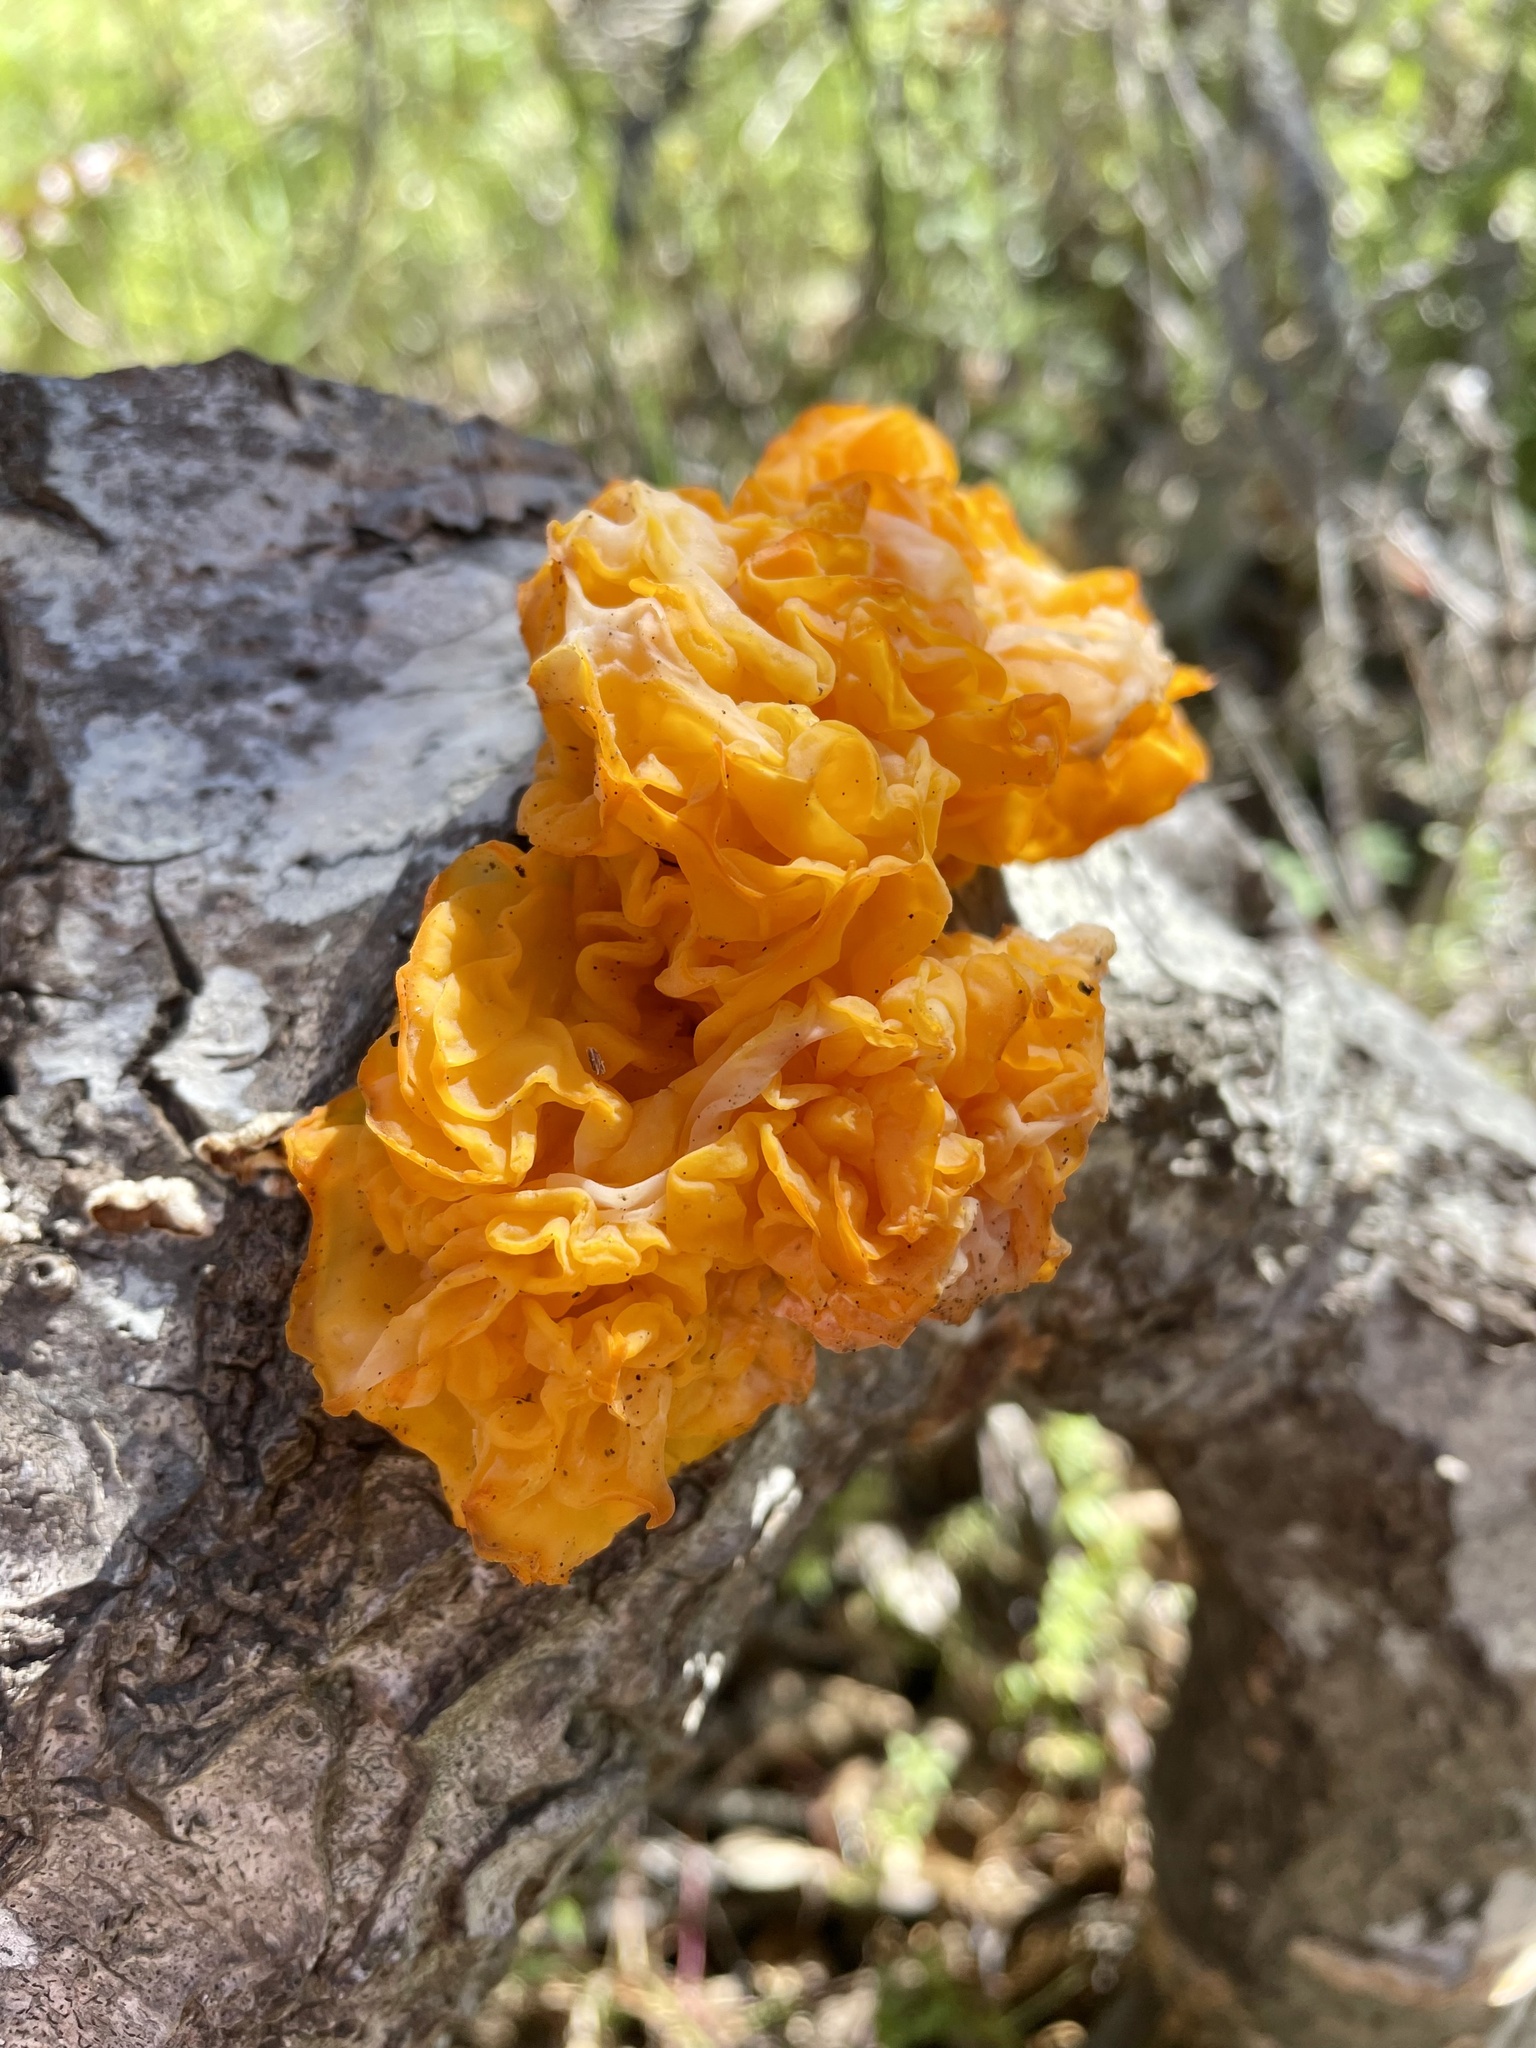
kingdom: Fungi
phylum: Basidiomycota
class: Tremellomycetes
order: Tremellales
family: Naemateliaceae
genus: Naematelia
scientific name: Naematelia aurantia
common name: Golden ear
